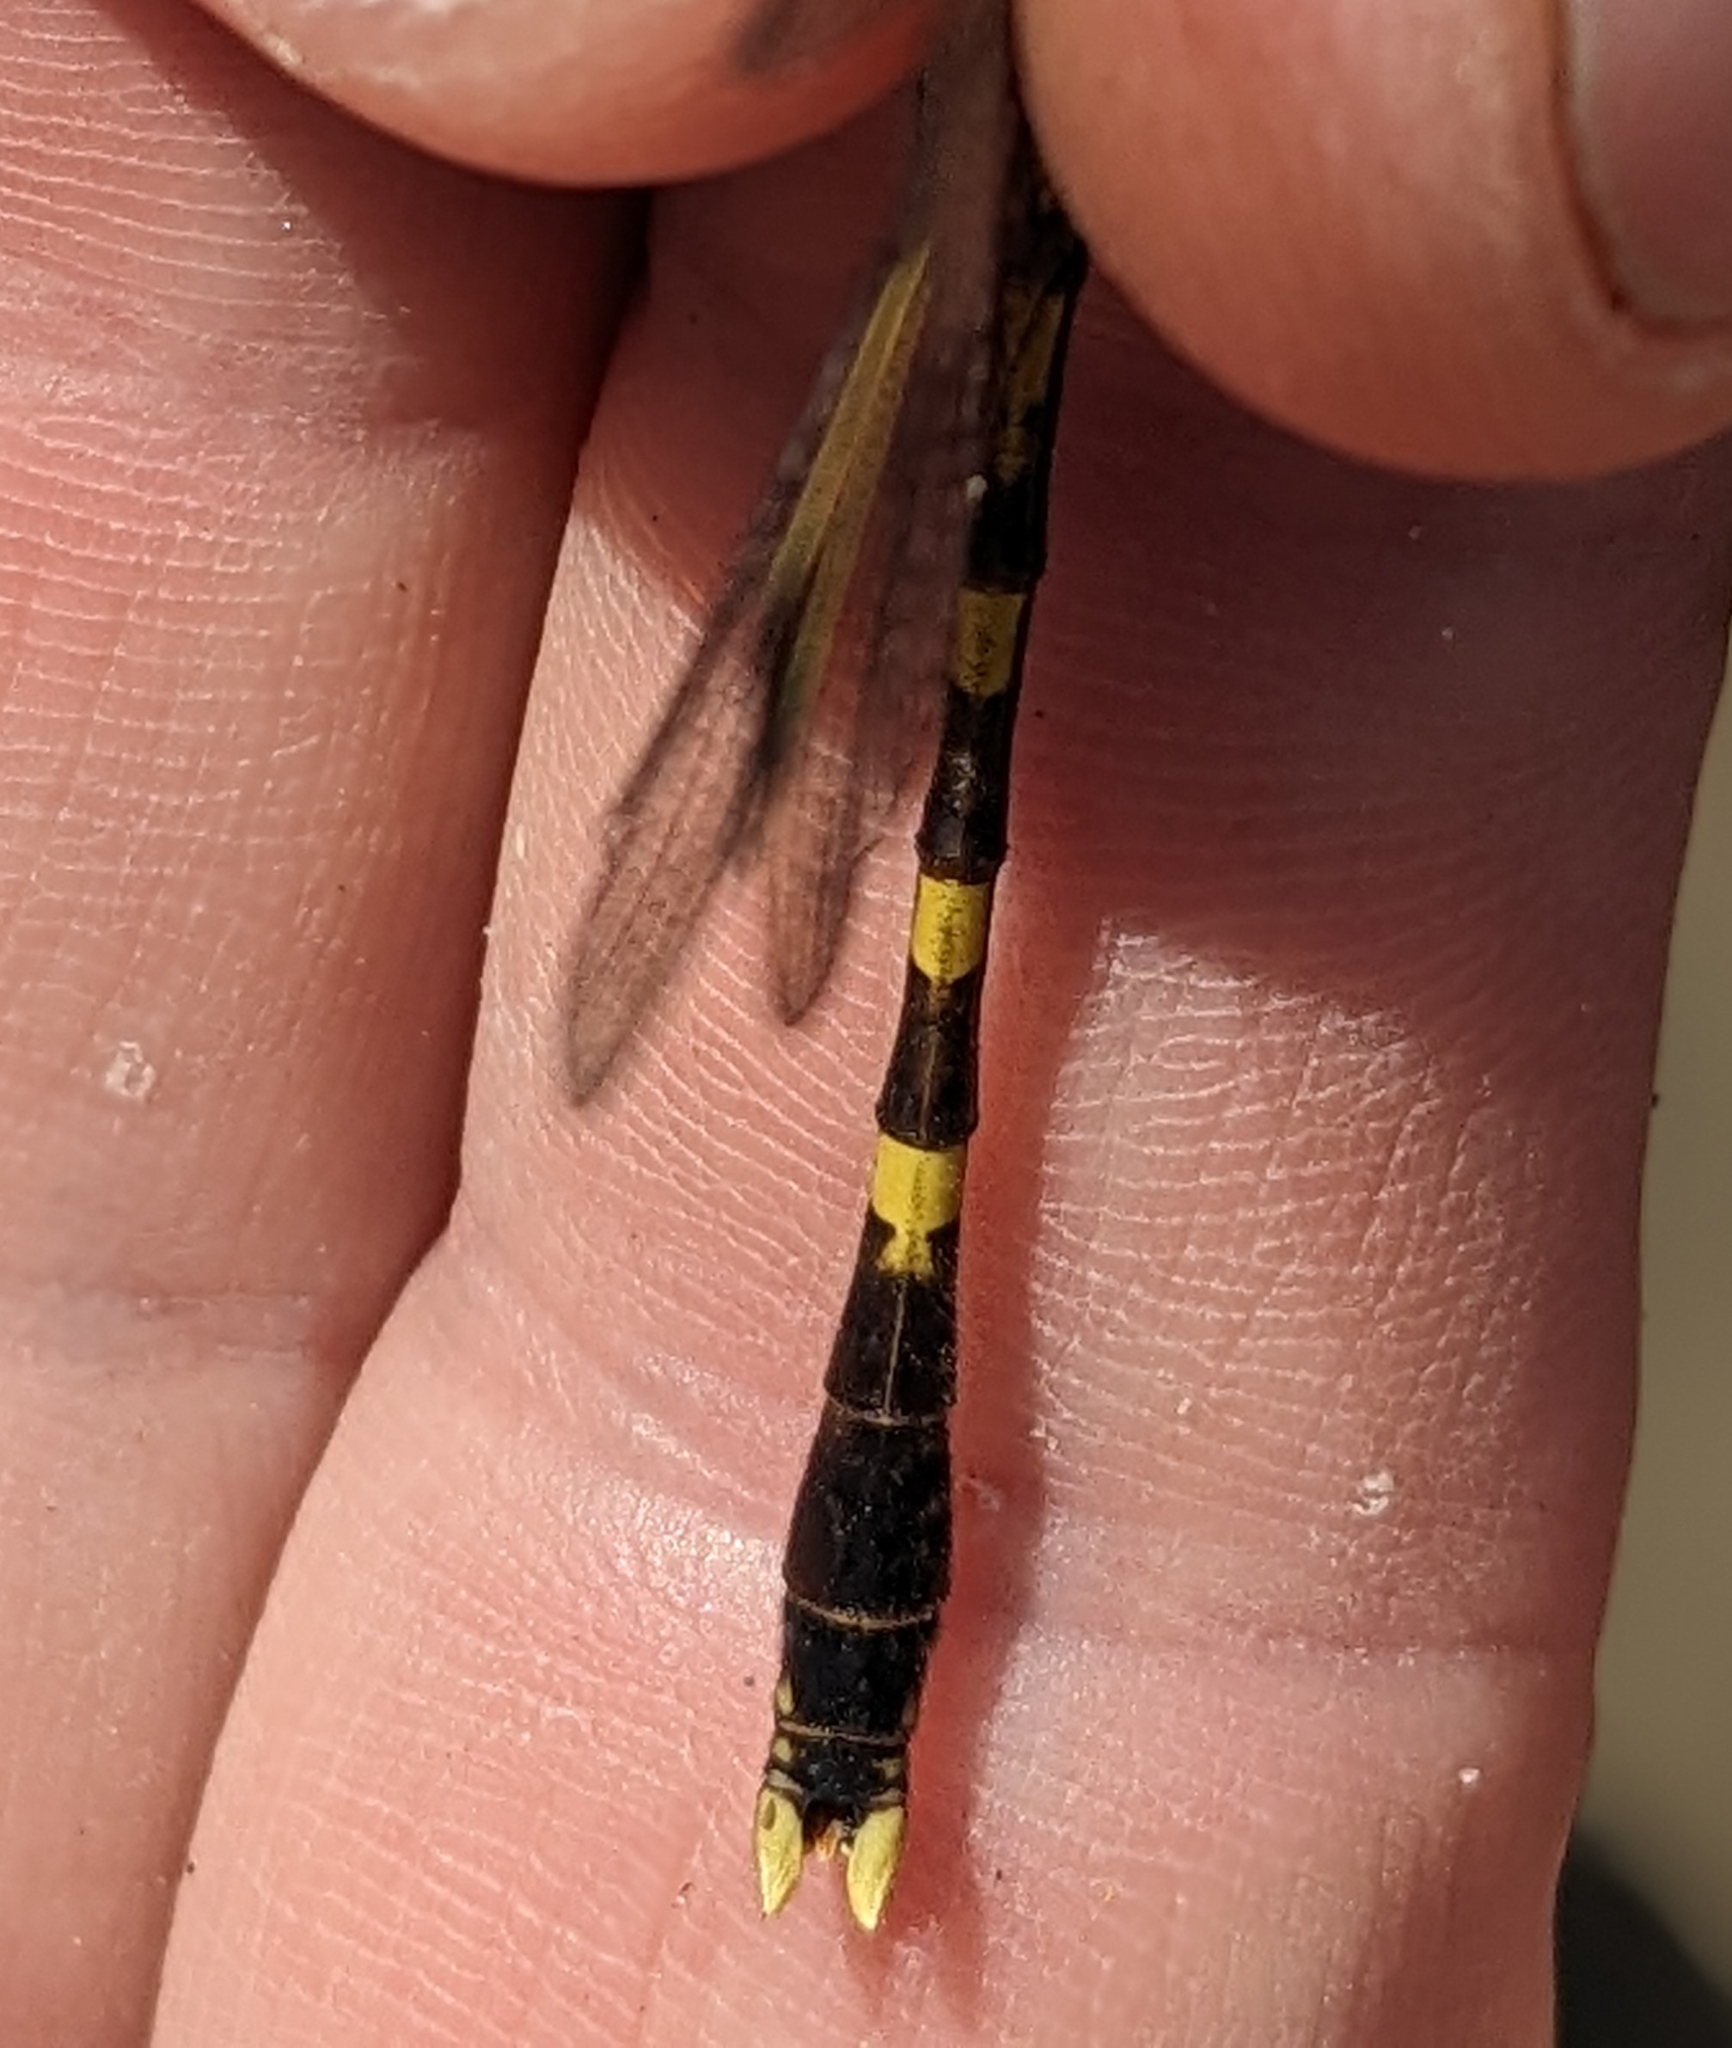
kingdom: Animalia
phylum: Arthropoda
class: Insecta
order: Odonata
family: Gomphidae
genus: Progomphus
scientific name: Progomphus obscurus
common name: Common sanddragon
